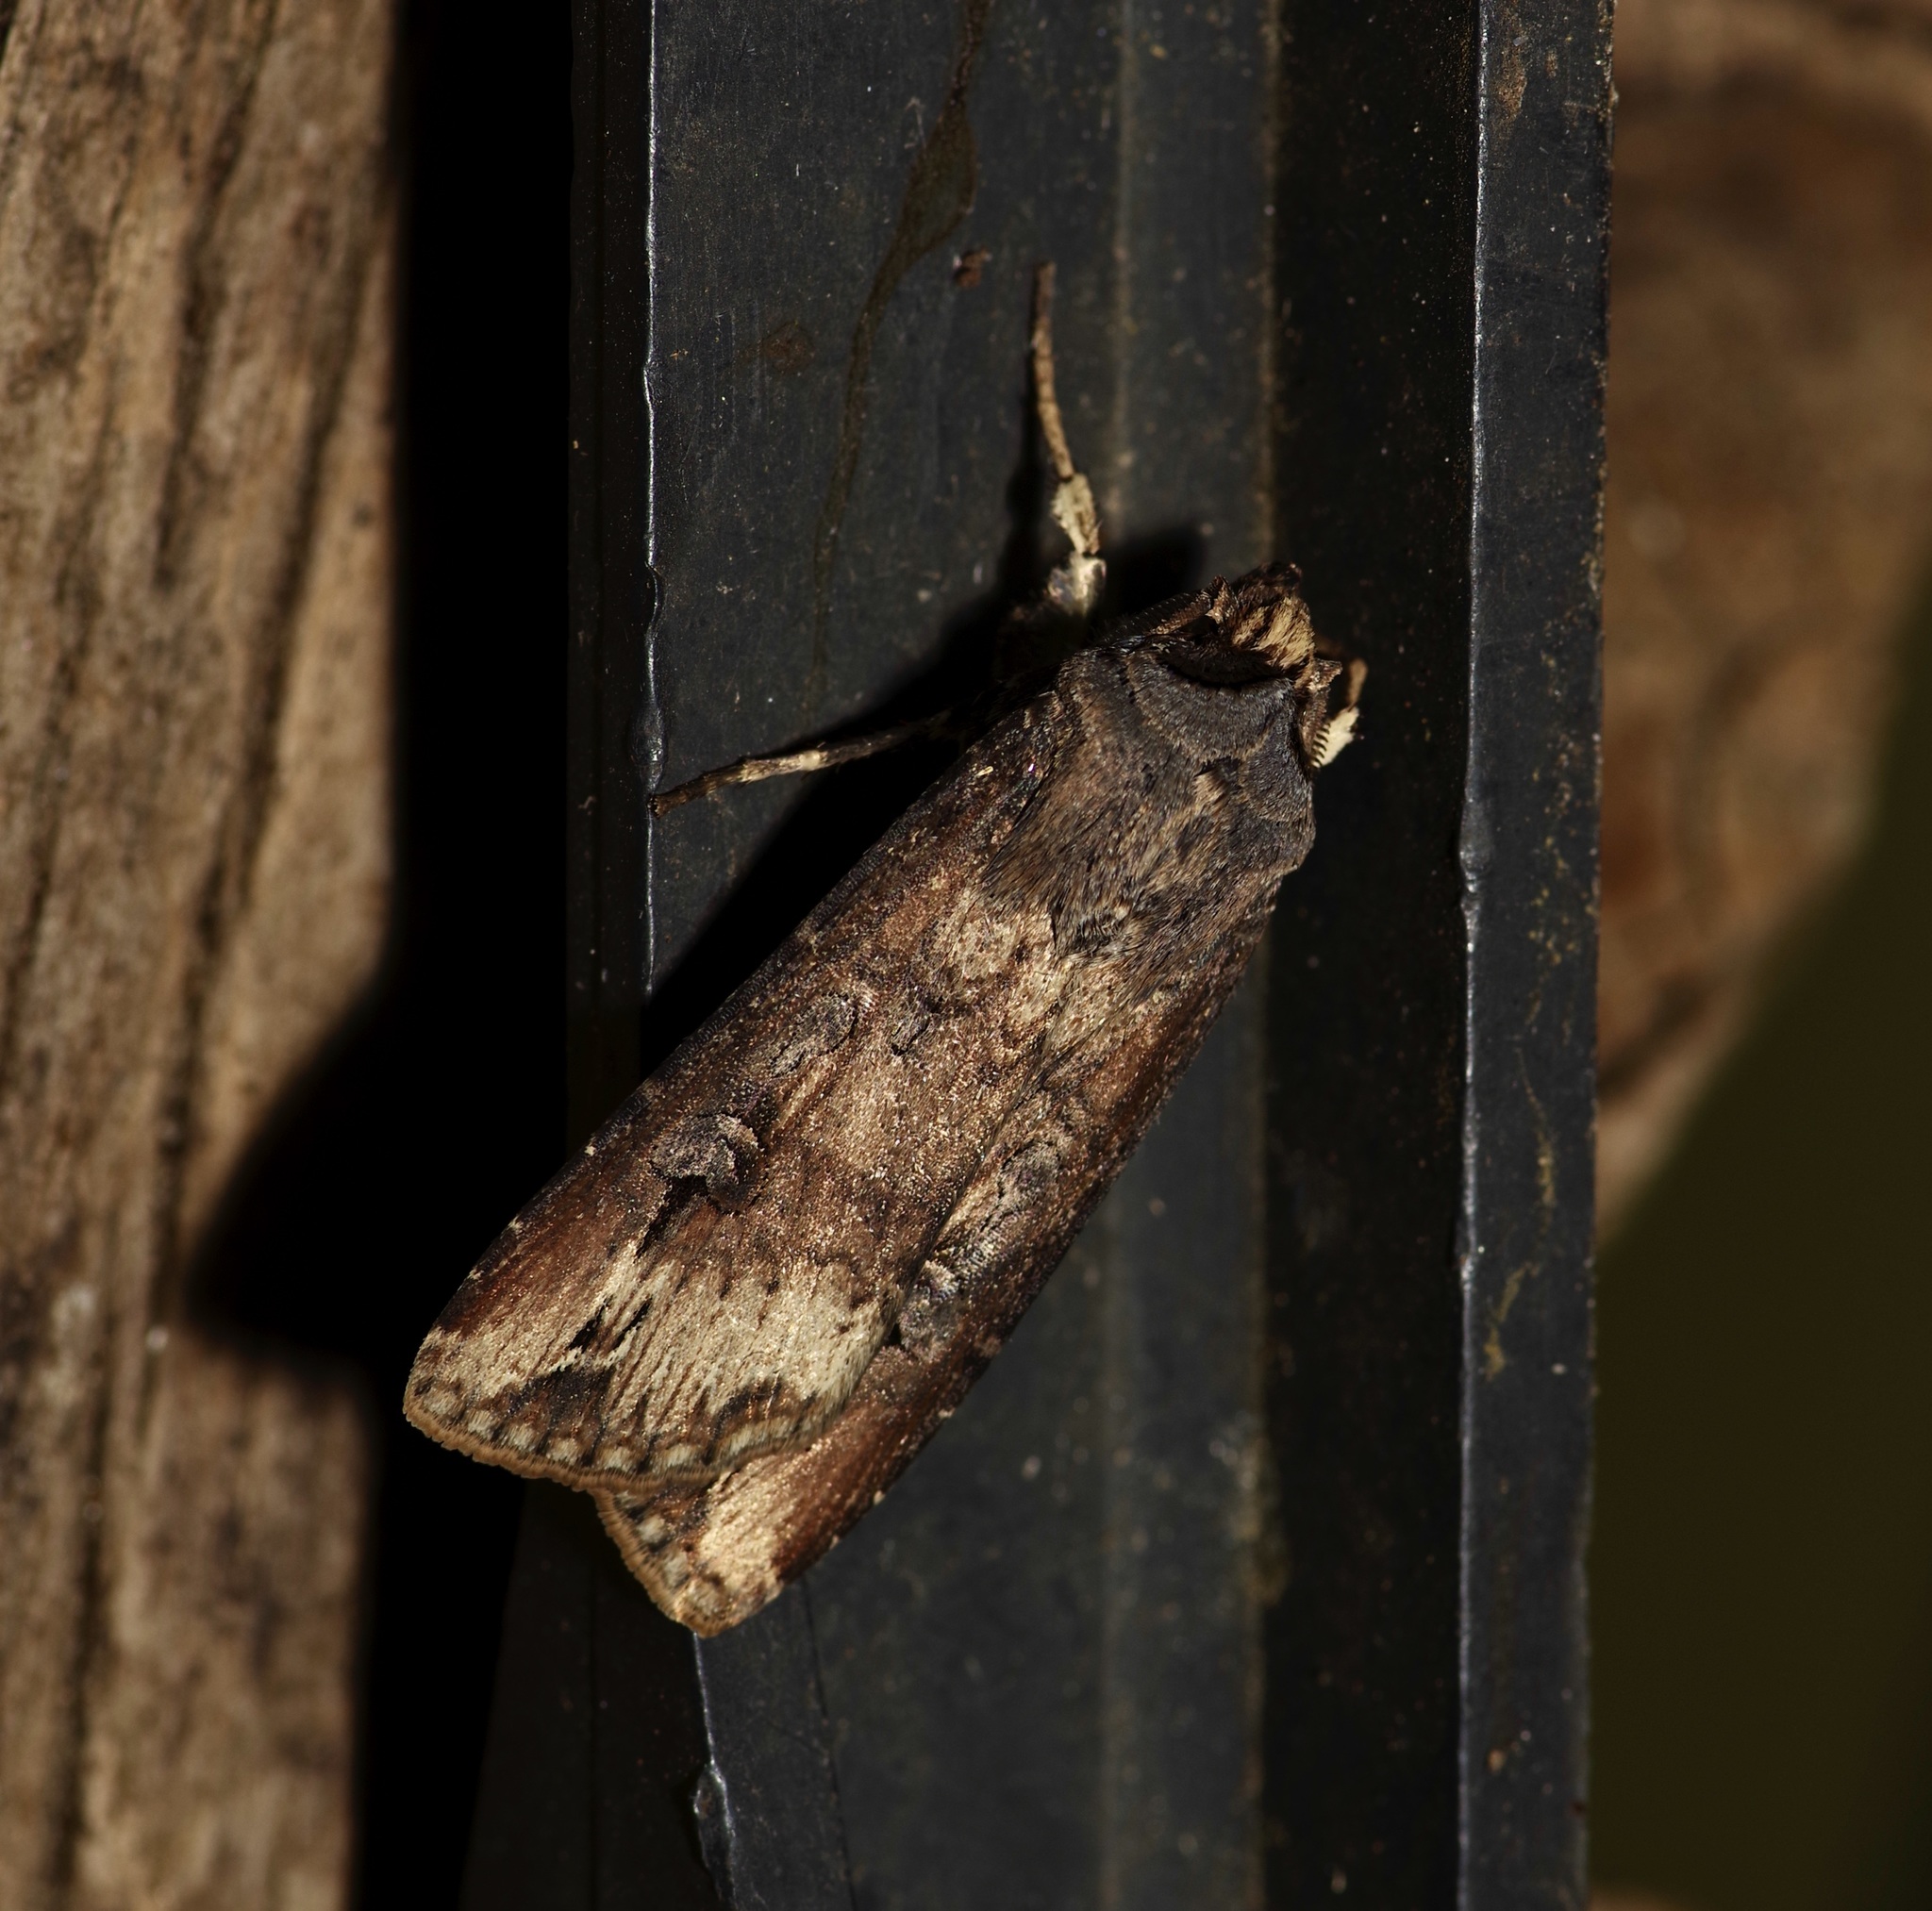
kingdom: Animalia
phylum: Arthropoda
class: Insecta
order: Lepidoptera
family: Noctuidae
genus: Agrotis
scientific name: Agrotis ipsilon
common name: Dark sword-grass
